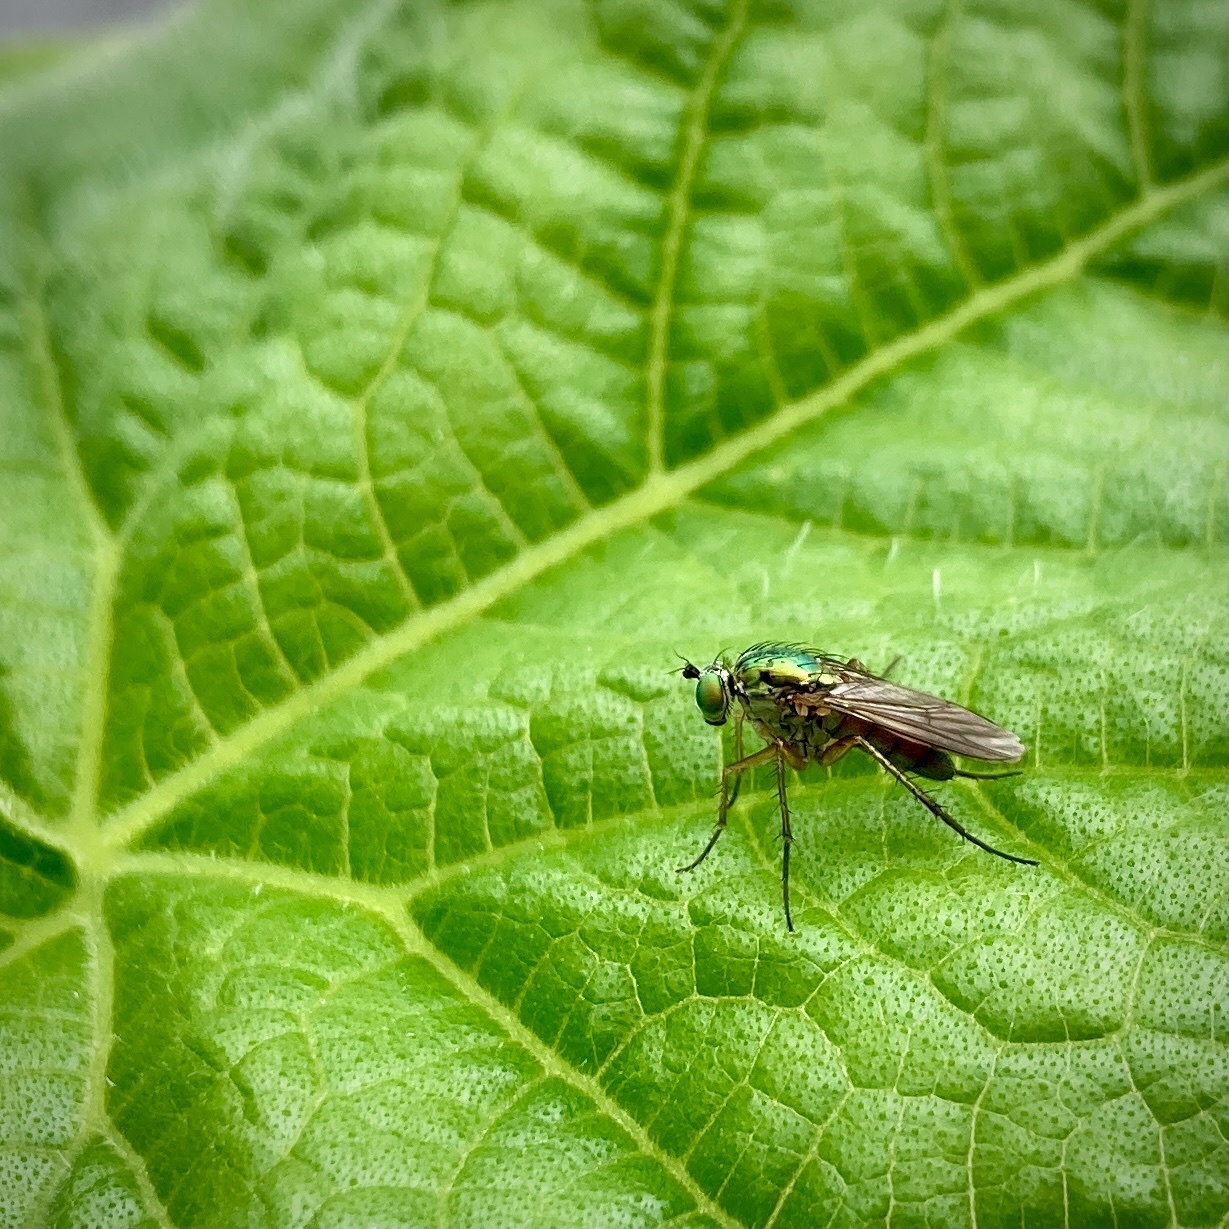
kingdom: Animalia
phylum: Arthropoda
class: Insecta
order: Diptera
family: Dolichopodidae
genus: Poecilobothrus
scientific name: Poecilobothrus nobilitatus
